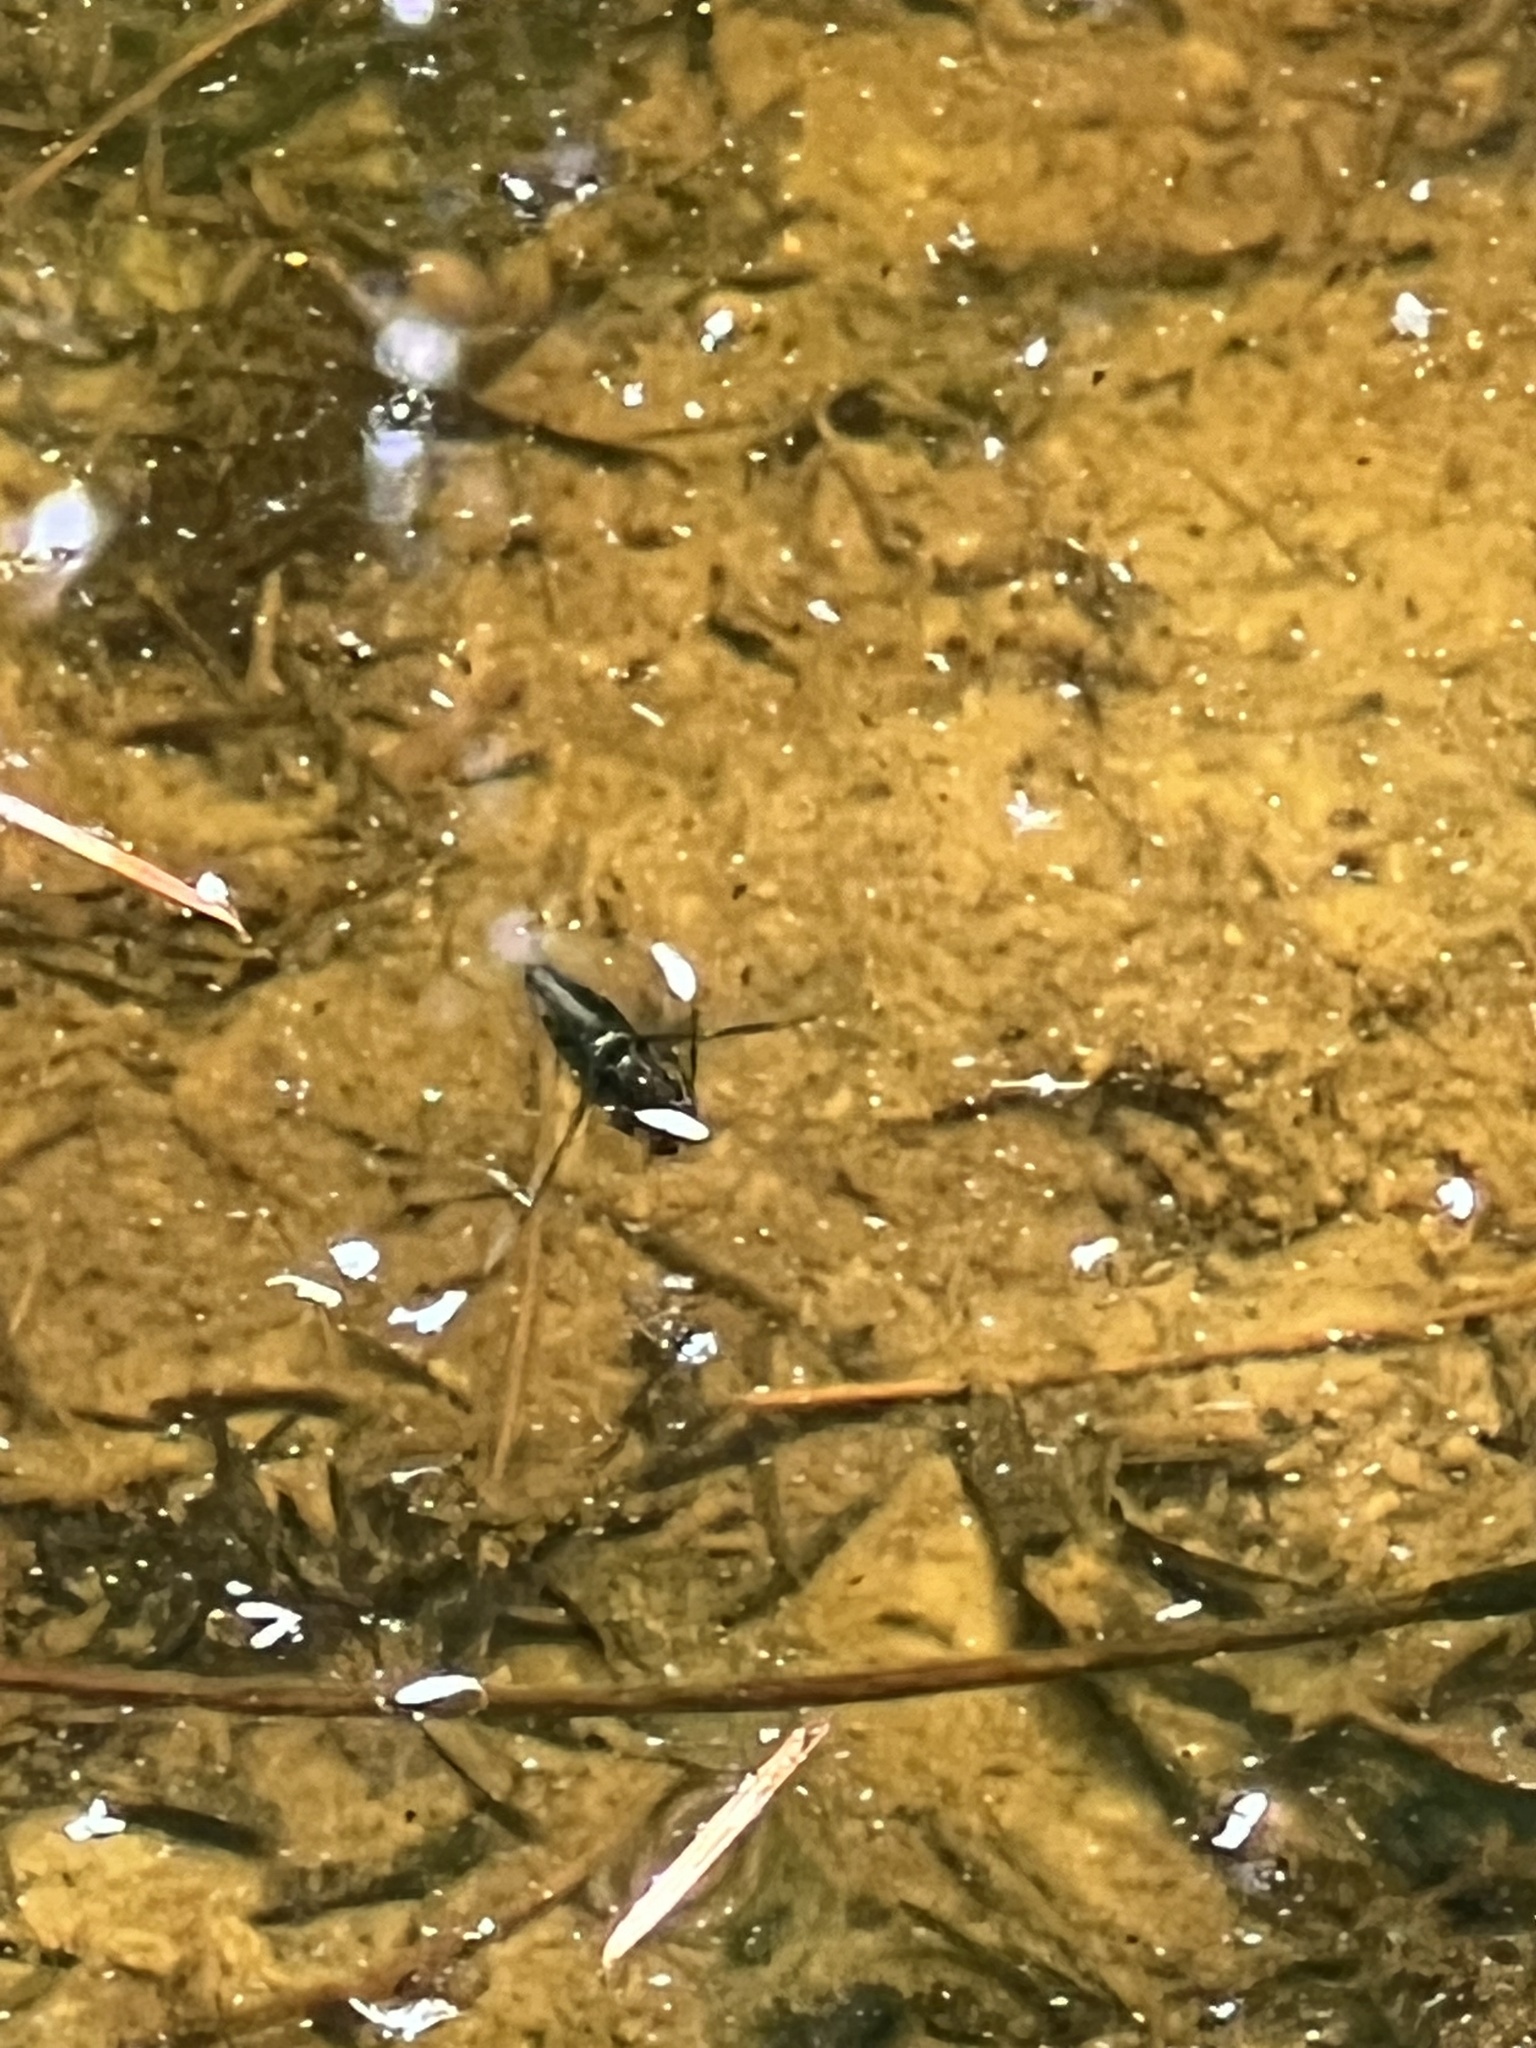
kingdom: Animalia
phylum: Arthropoda
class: Insecta
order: Hemiptera
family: Notonectidae
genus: Notonecta
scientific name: Notonecta
